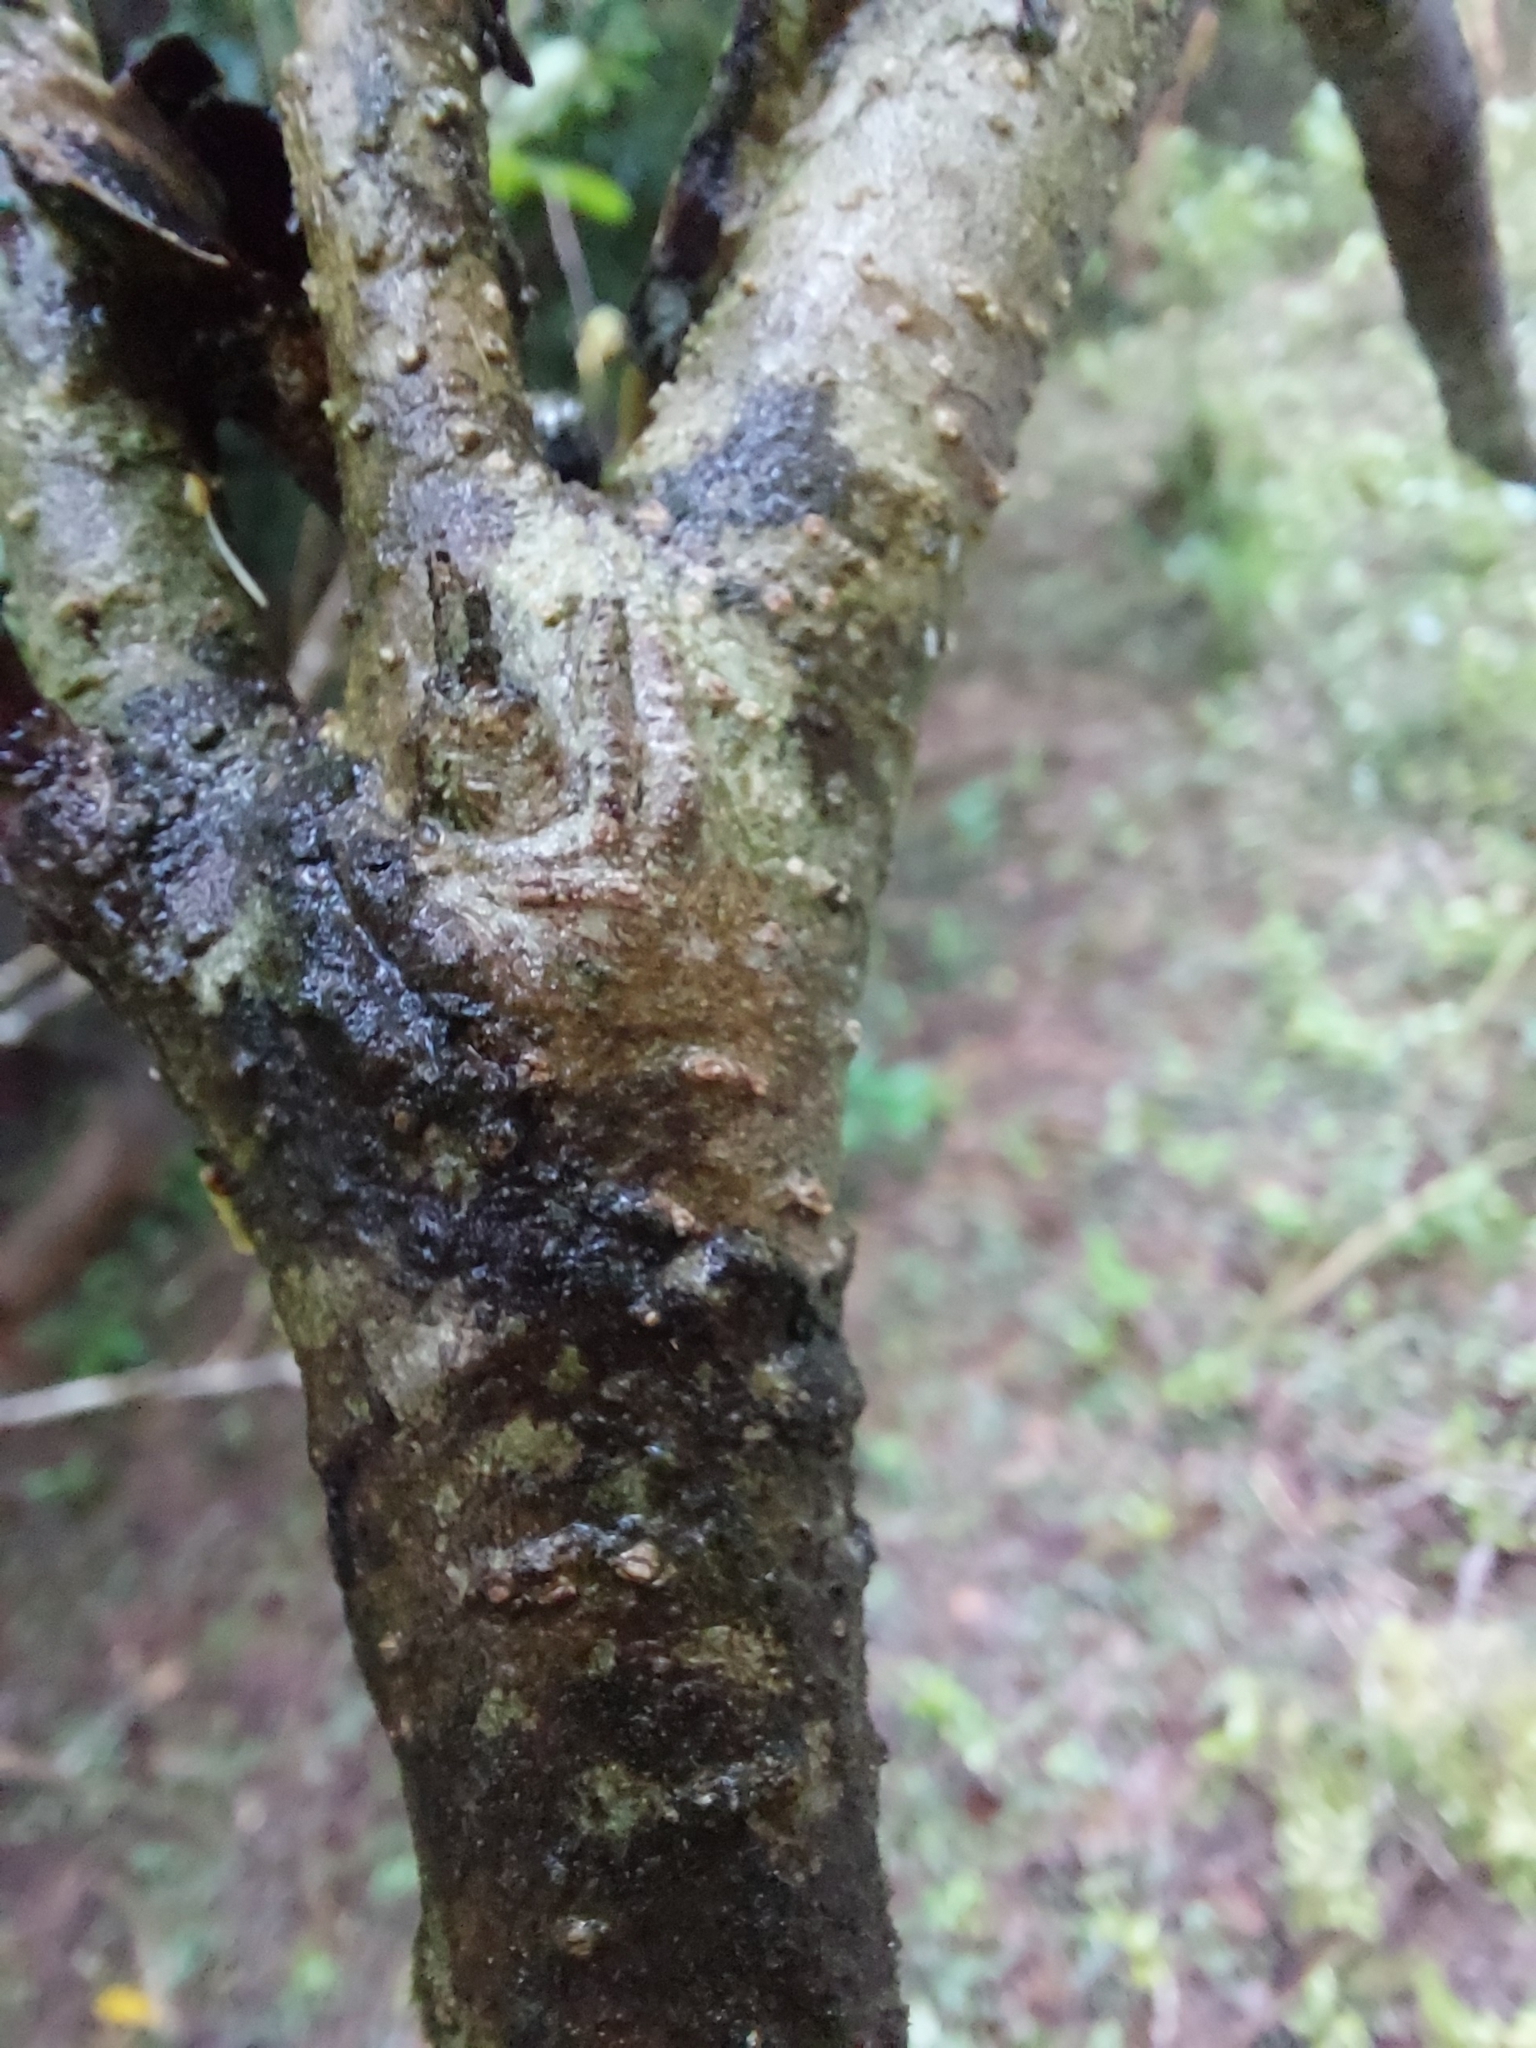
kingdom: Plantae
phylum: Tracheophyta
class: Magnoliopsida
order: Apiales
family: Pittosporaceae
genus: Pittosporum
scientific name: Pittosporum pentandrum
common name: Taiwanese cheesewood
